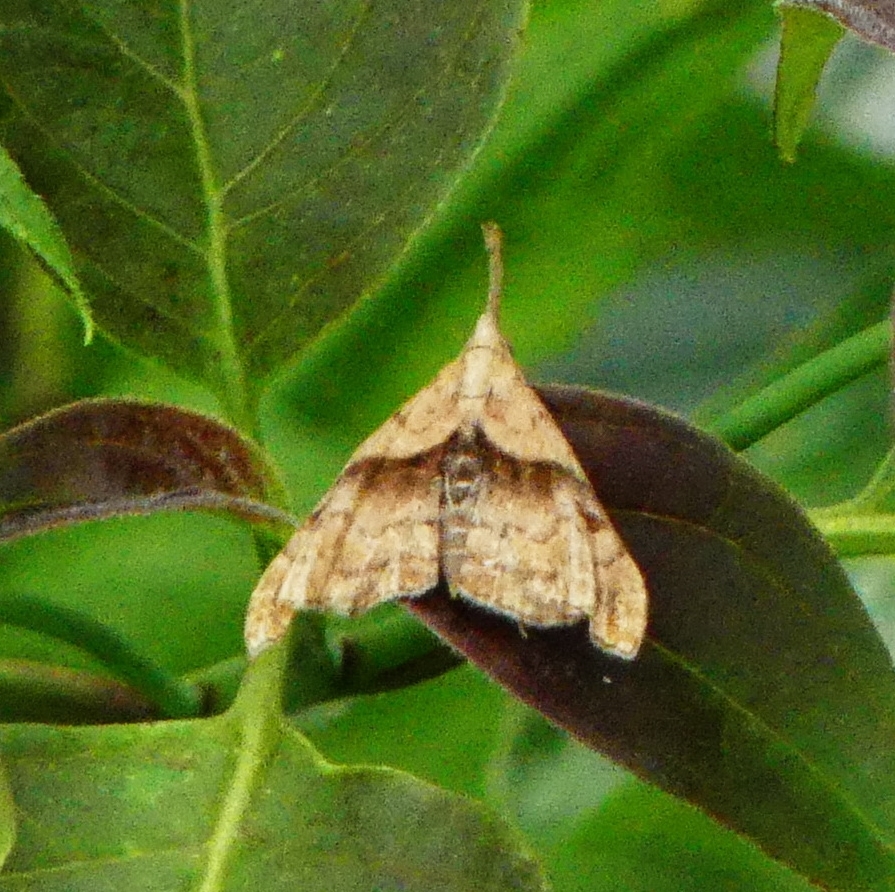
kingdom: Animalia
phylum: Arthropoda
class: Insecta
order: Lepidoptera
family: Erebidae
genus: Palthis
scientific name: Palthis angulalis
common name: Dark-spotted palthis moth
